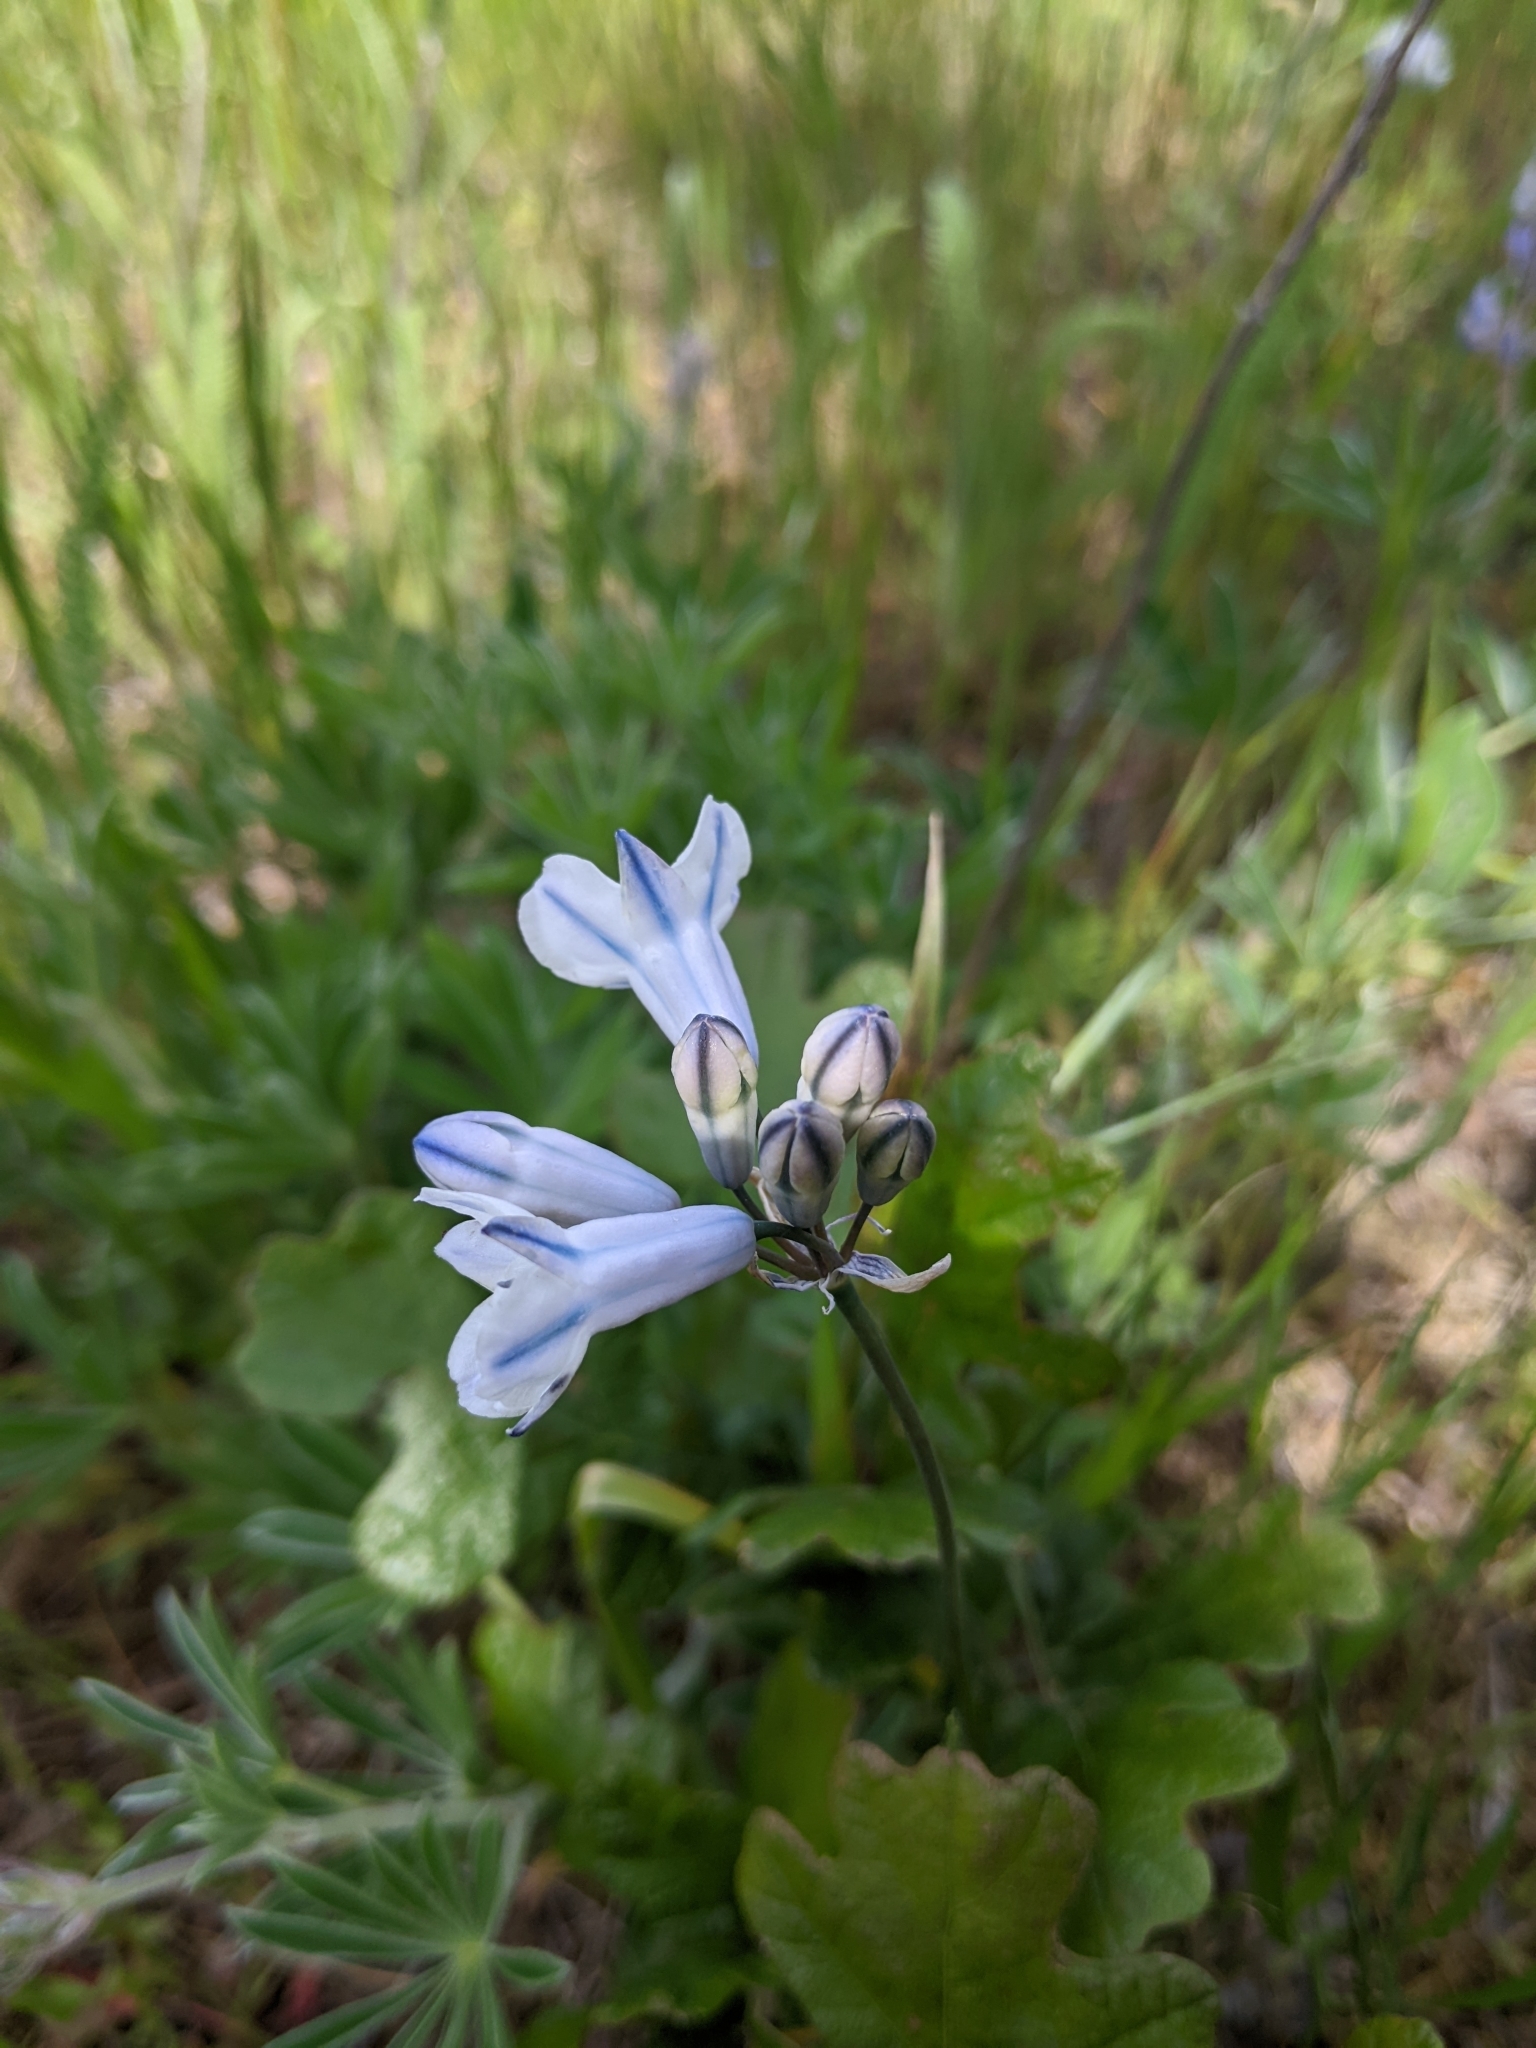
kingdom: Plantae
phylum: Tracheophyta
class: Liliopsida
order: Asparagales
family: Asparagaceae
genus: Triteleia
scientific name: Triteleia grandiflora
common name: Wild hyacinth
